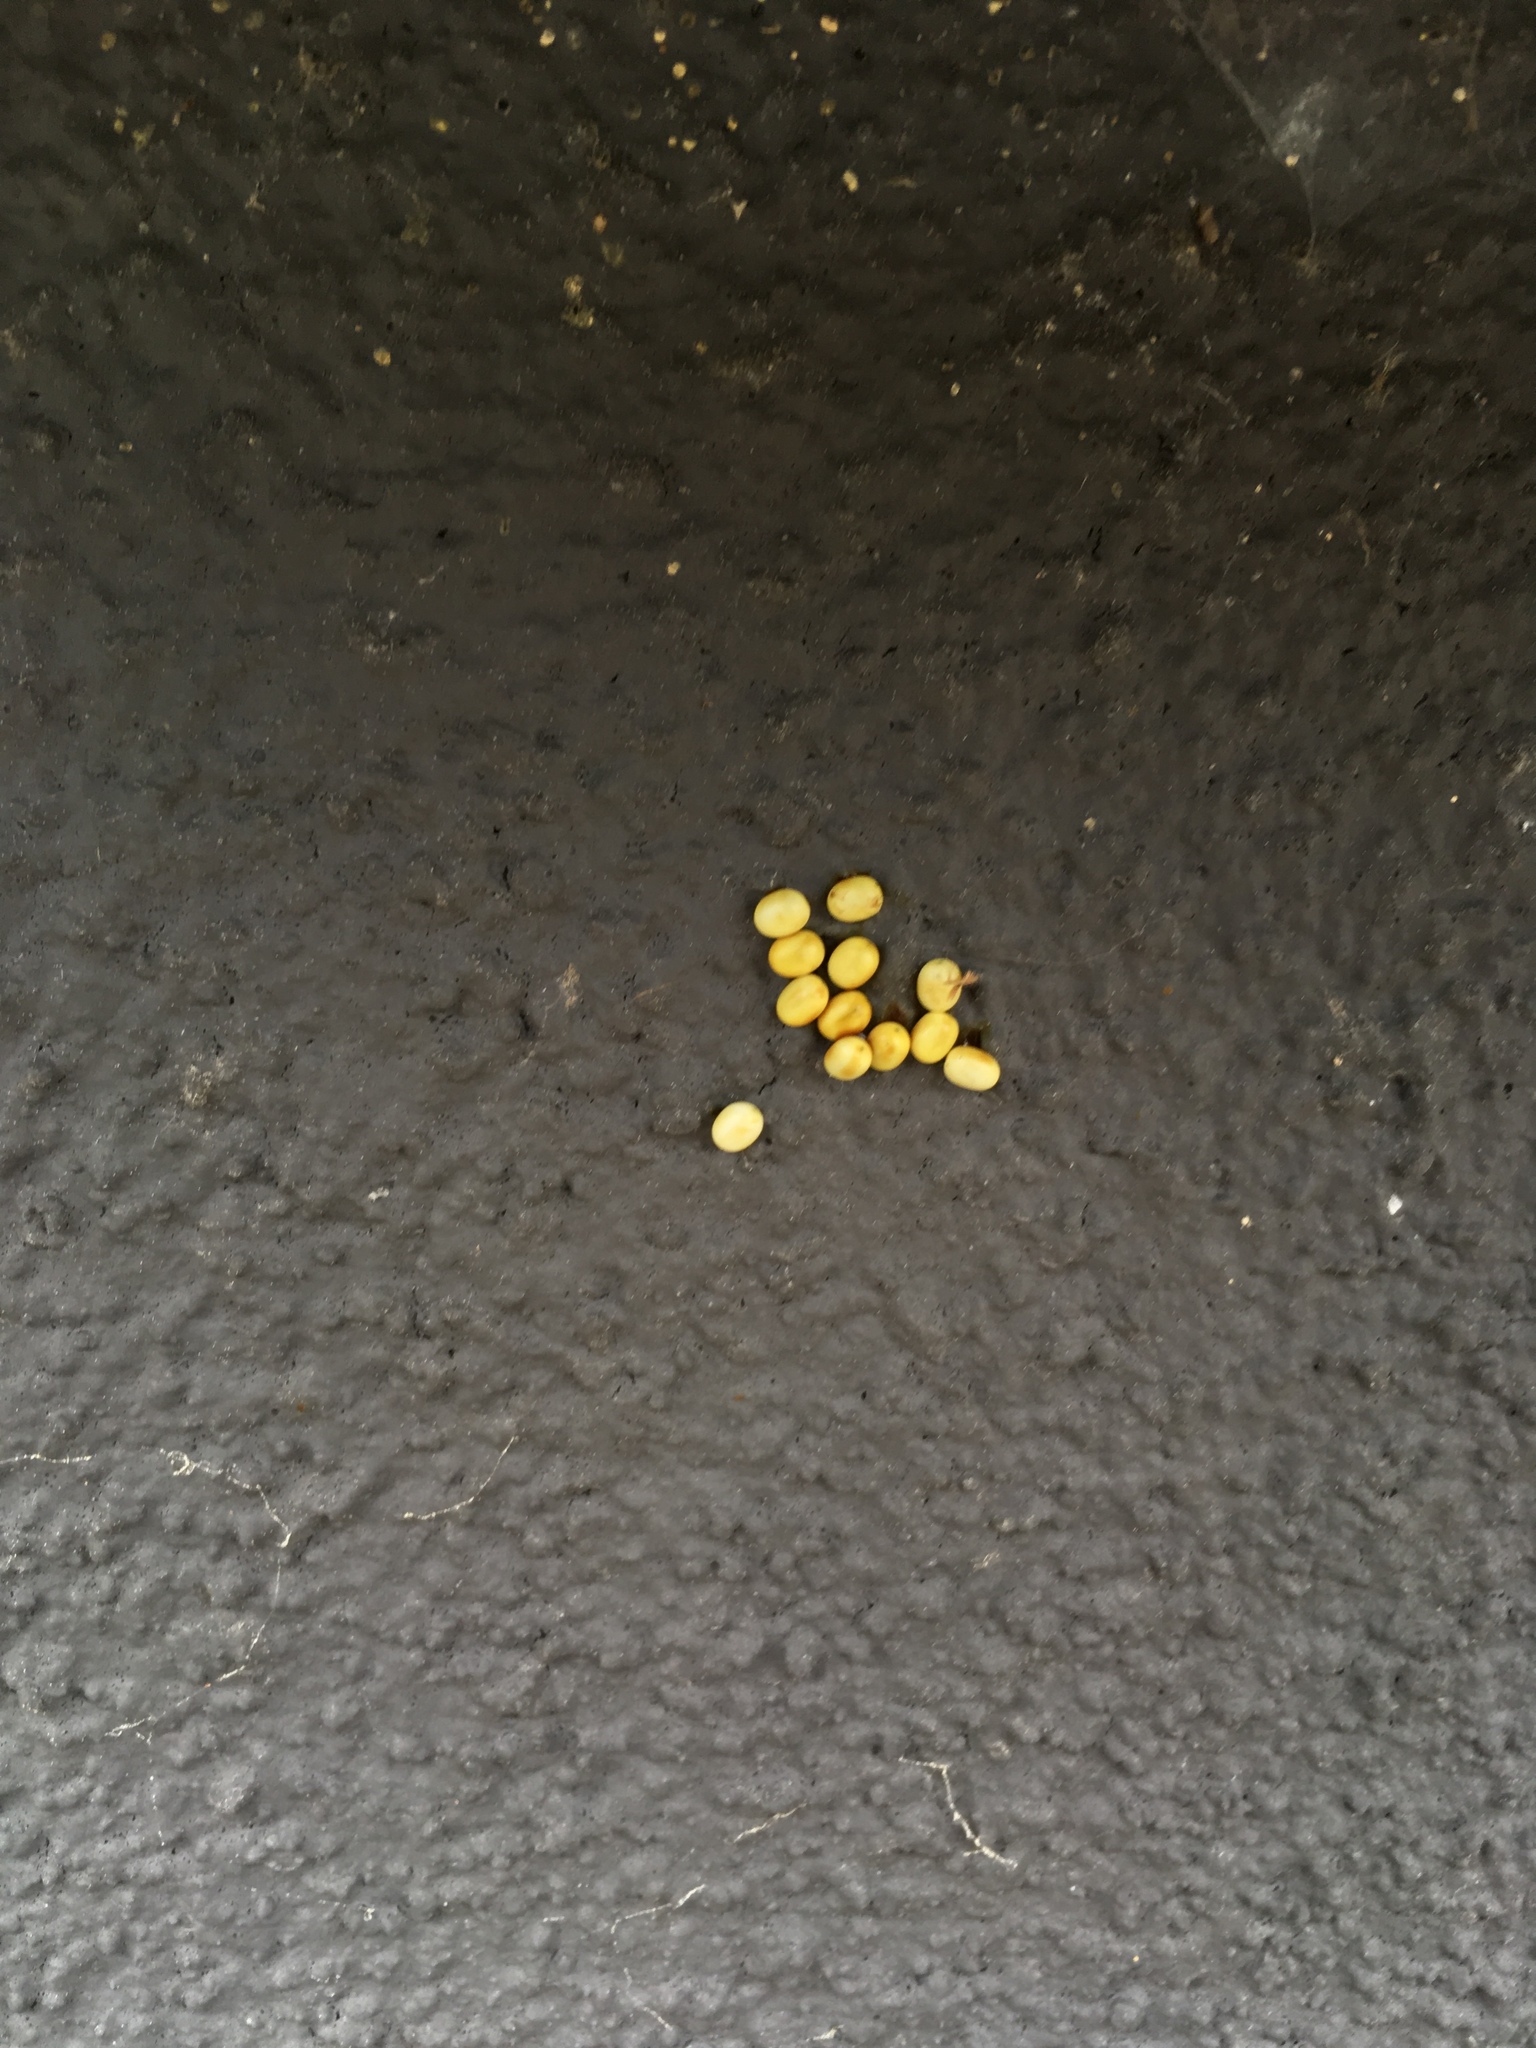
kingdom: Animalia
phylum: Arthropoda
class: Insecta
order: Lepidoptera
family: Saturniidae
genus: Opodiphthera
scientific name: Opodiphthera
